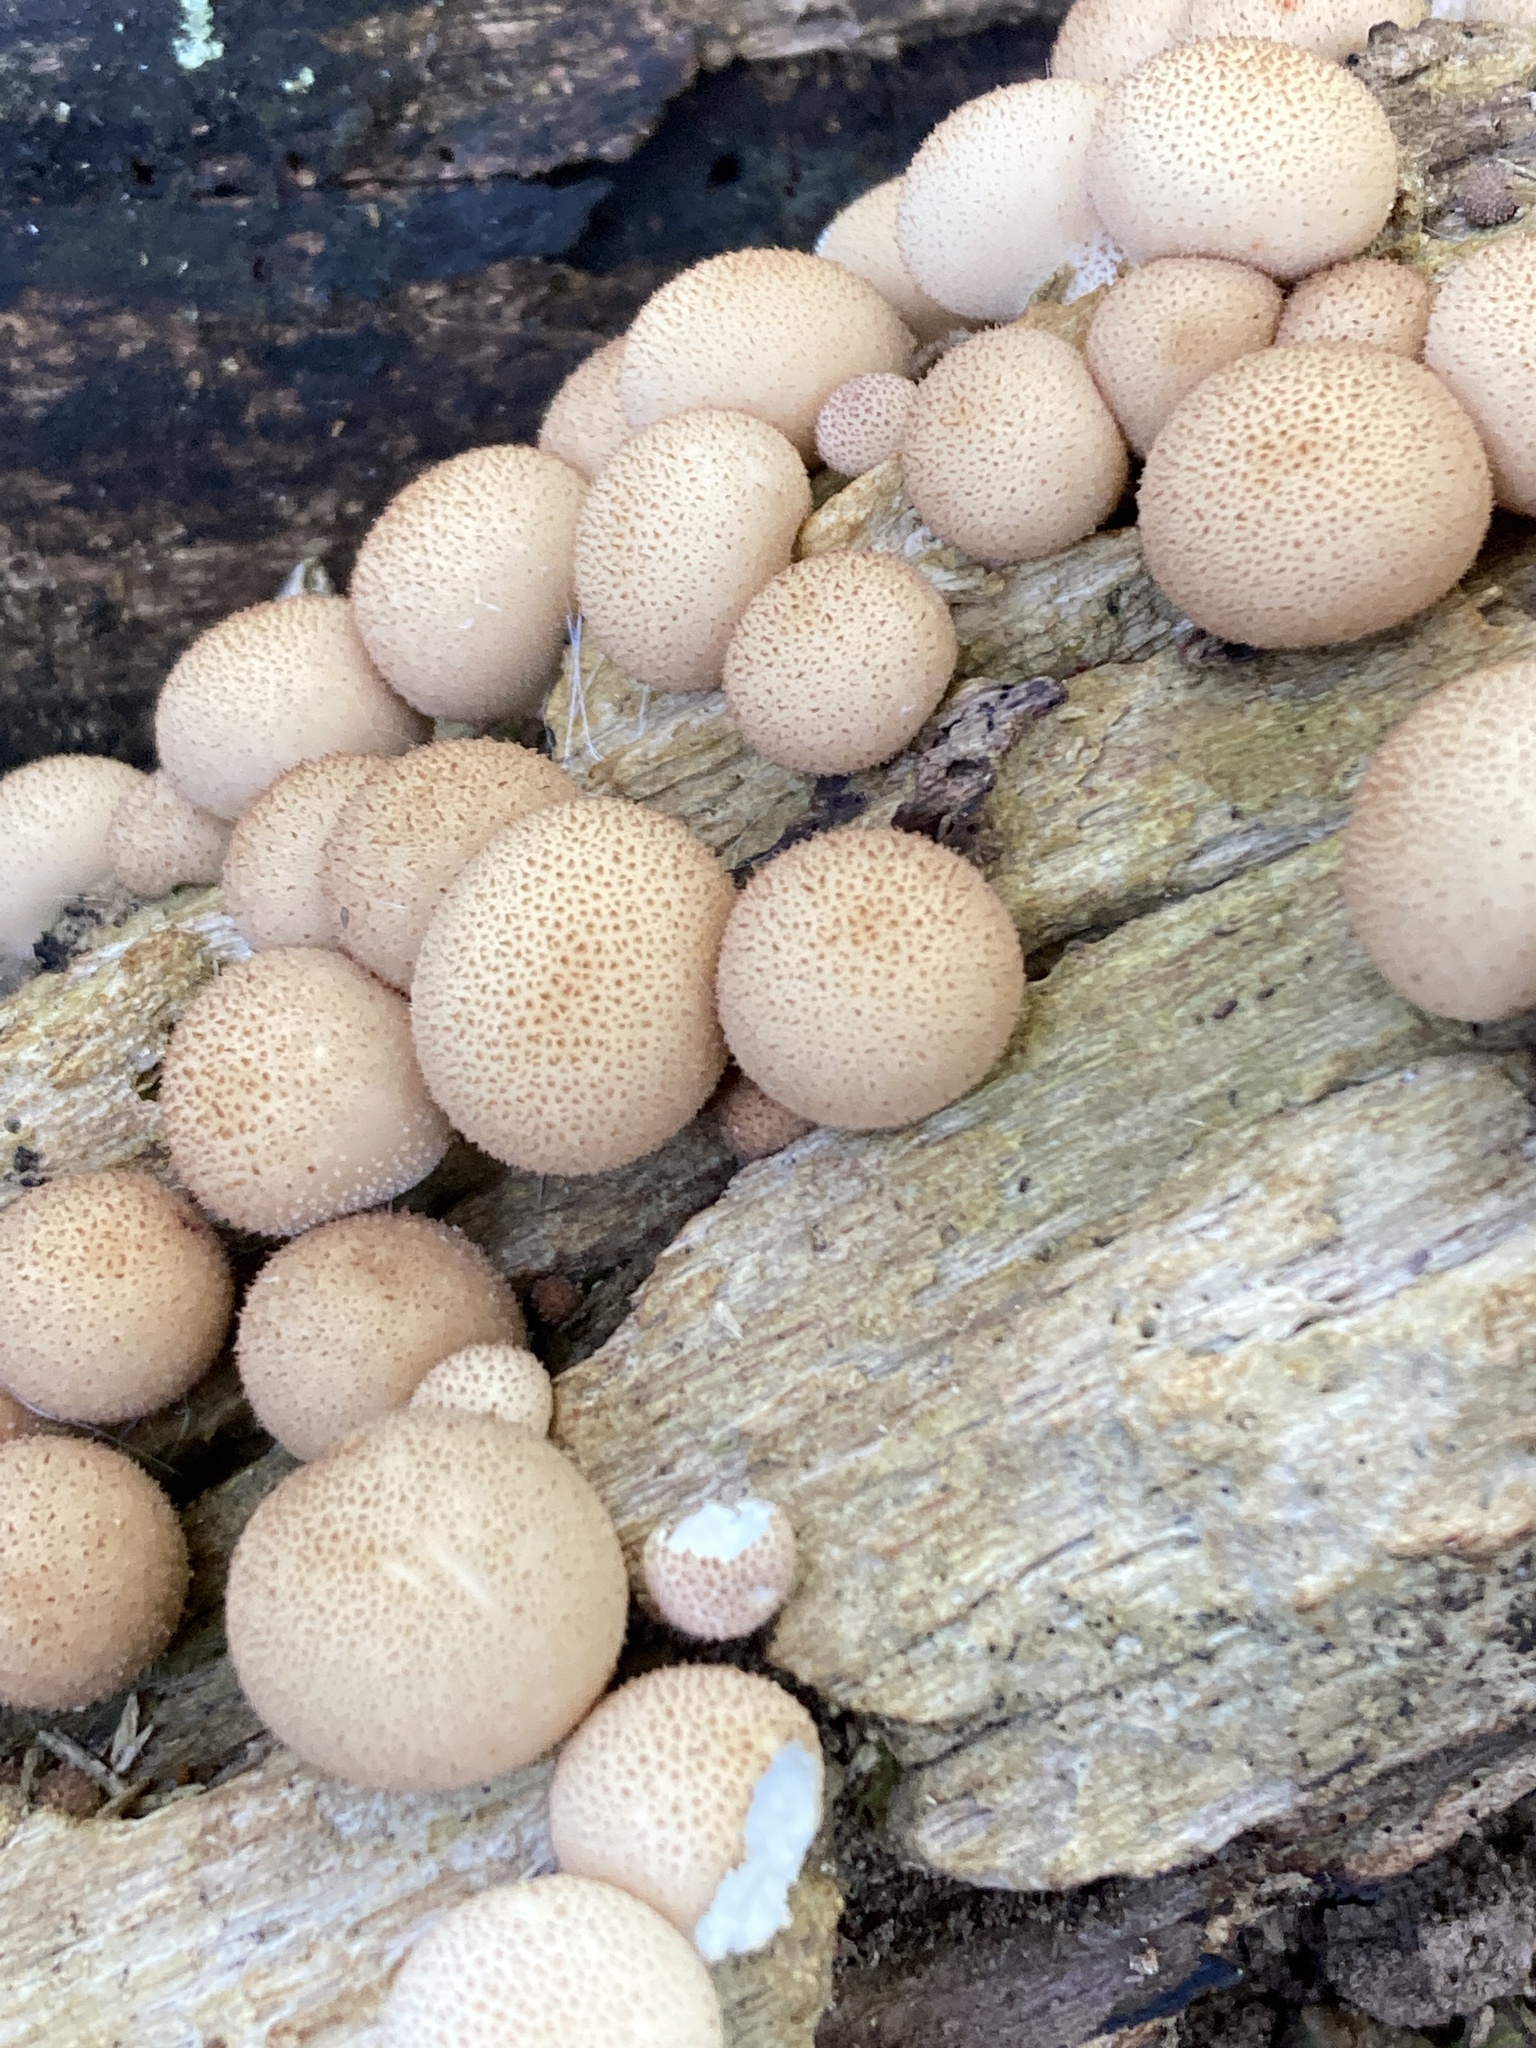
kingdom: Fungi
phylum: Basidiomycota
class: Agaricomycetes
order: Agaricales
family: Lycoperdaceae
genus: Apioperdon
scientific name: Apioperdon pyriforme
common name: Pear-shaped puffball
